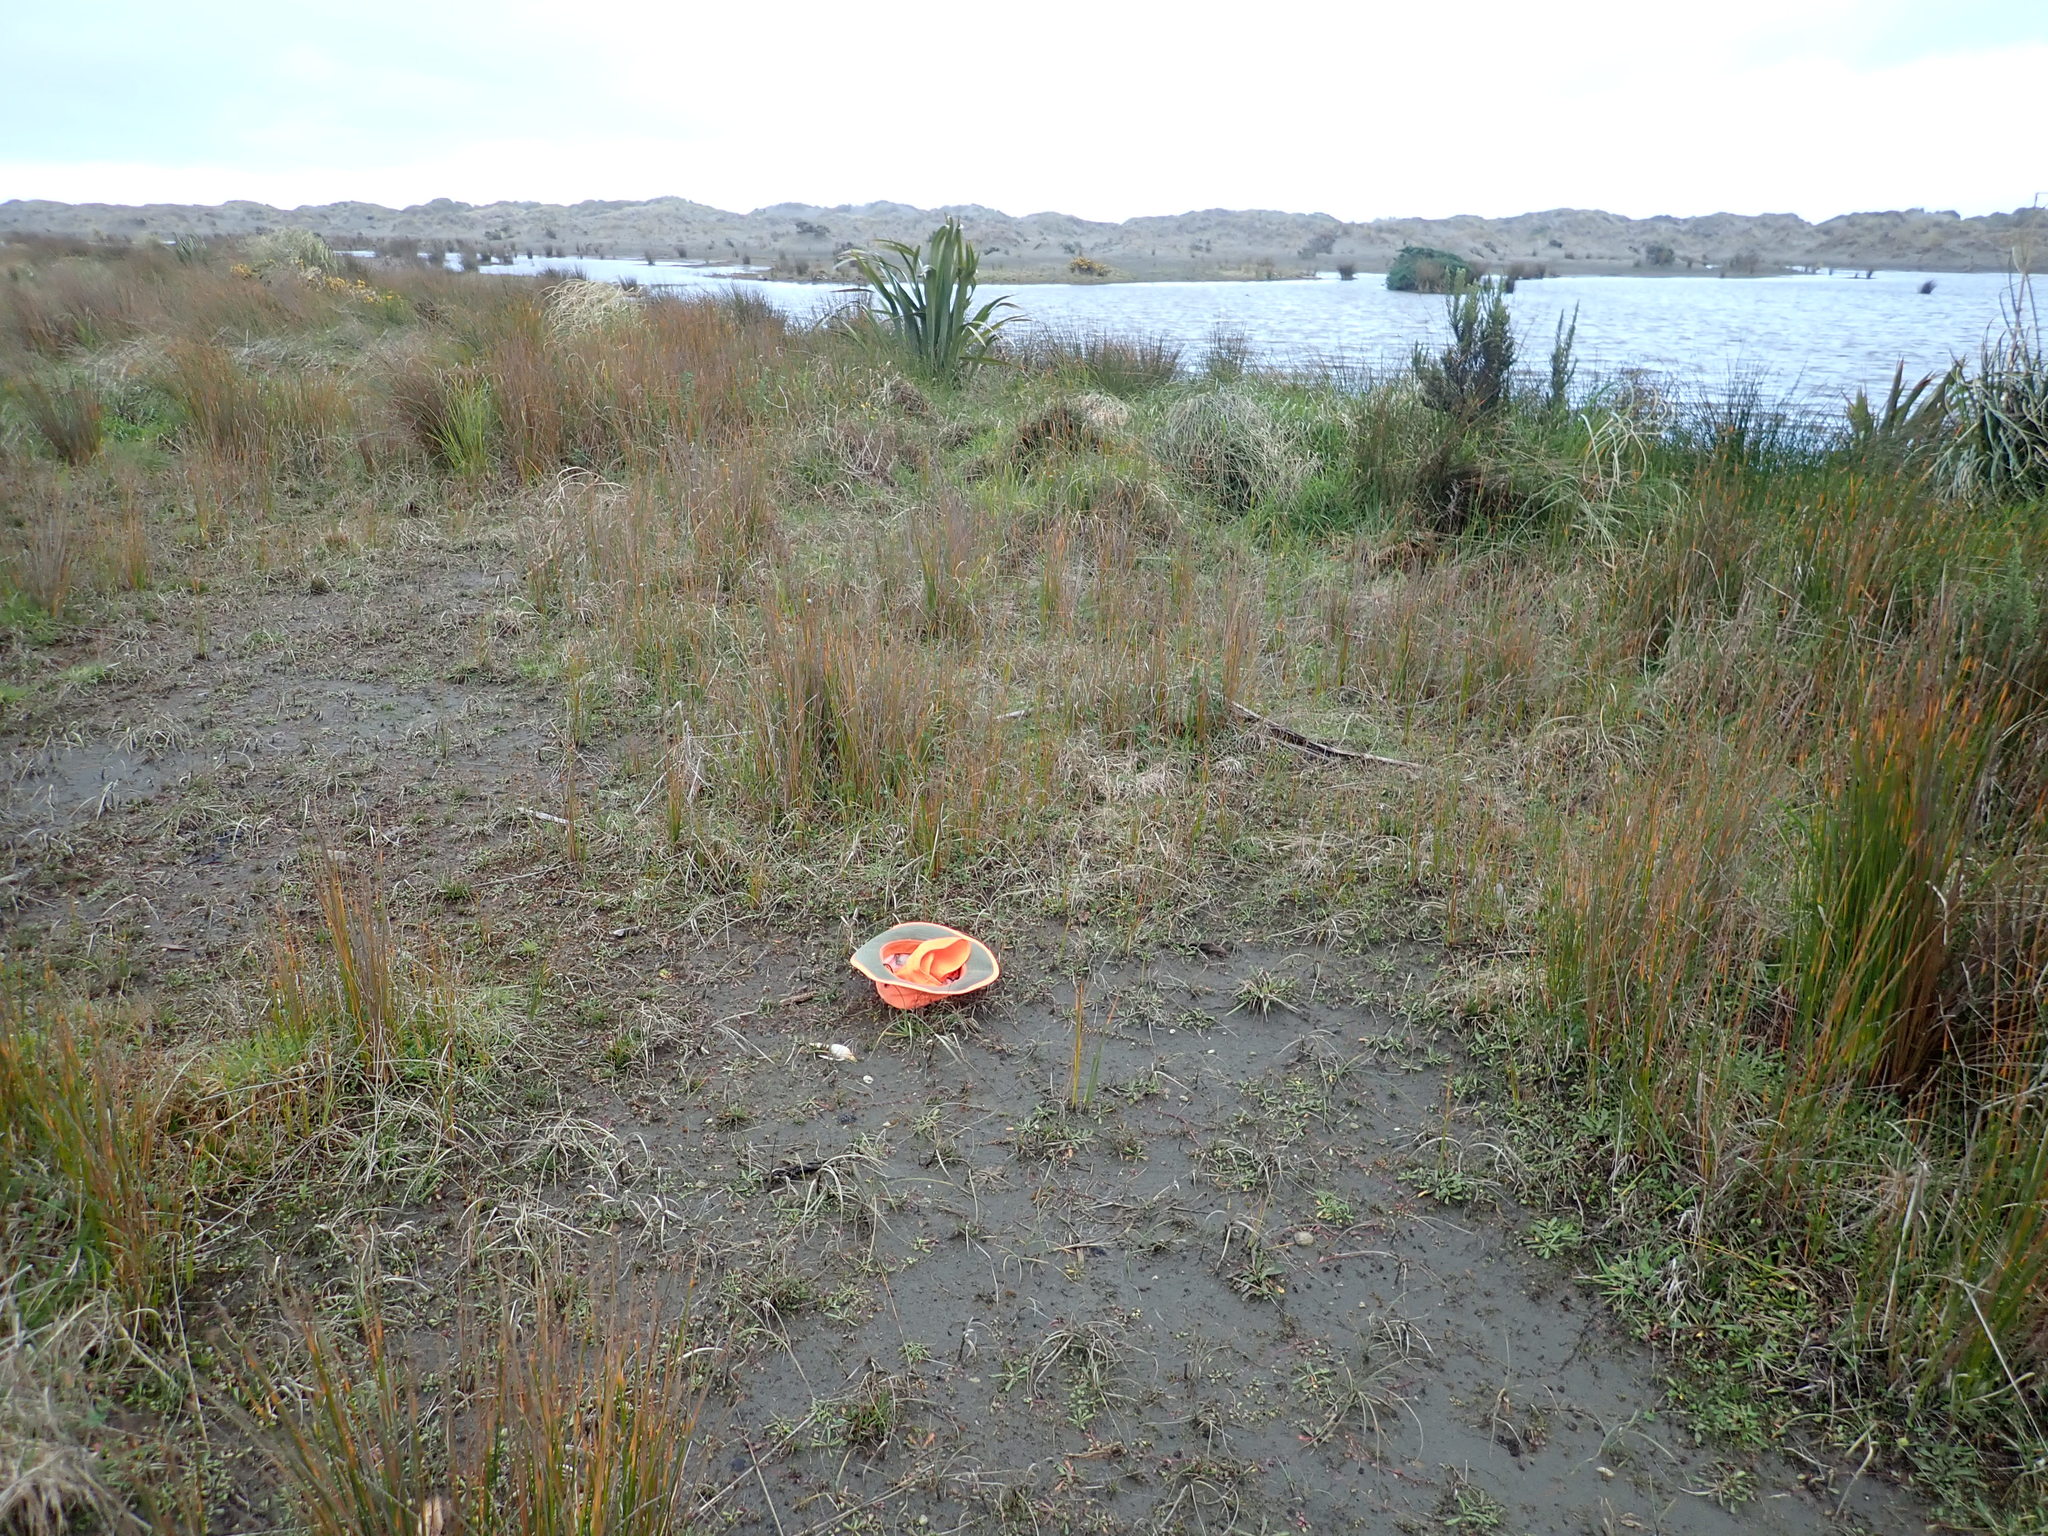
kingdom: Plantae
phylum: Tracheophyta
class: Liliopsida
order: Poales
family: Juncaceae
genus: Juncus
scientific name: Juncus caespiticius
